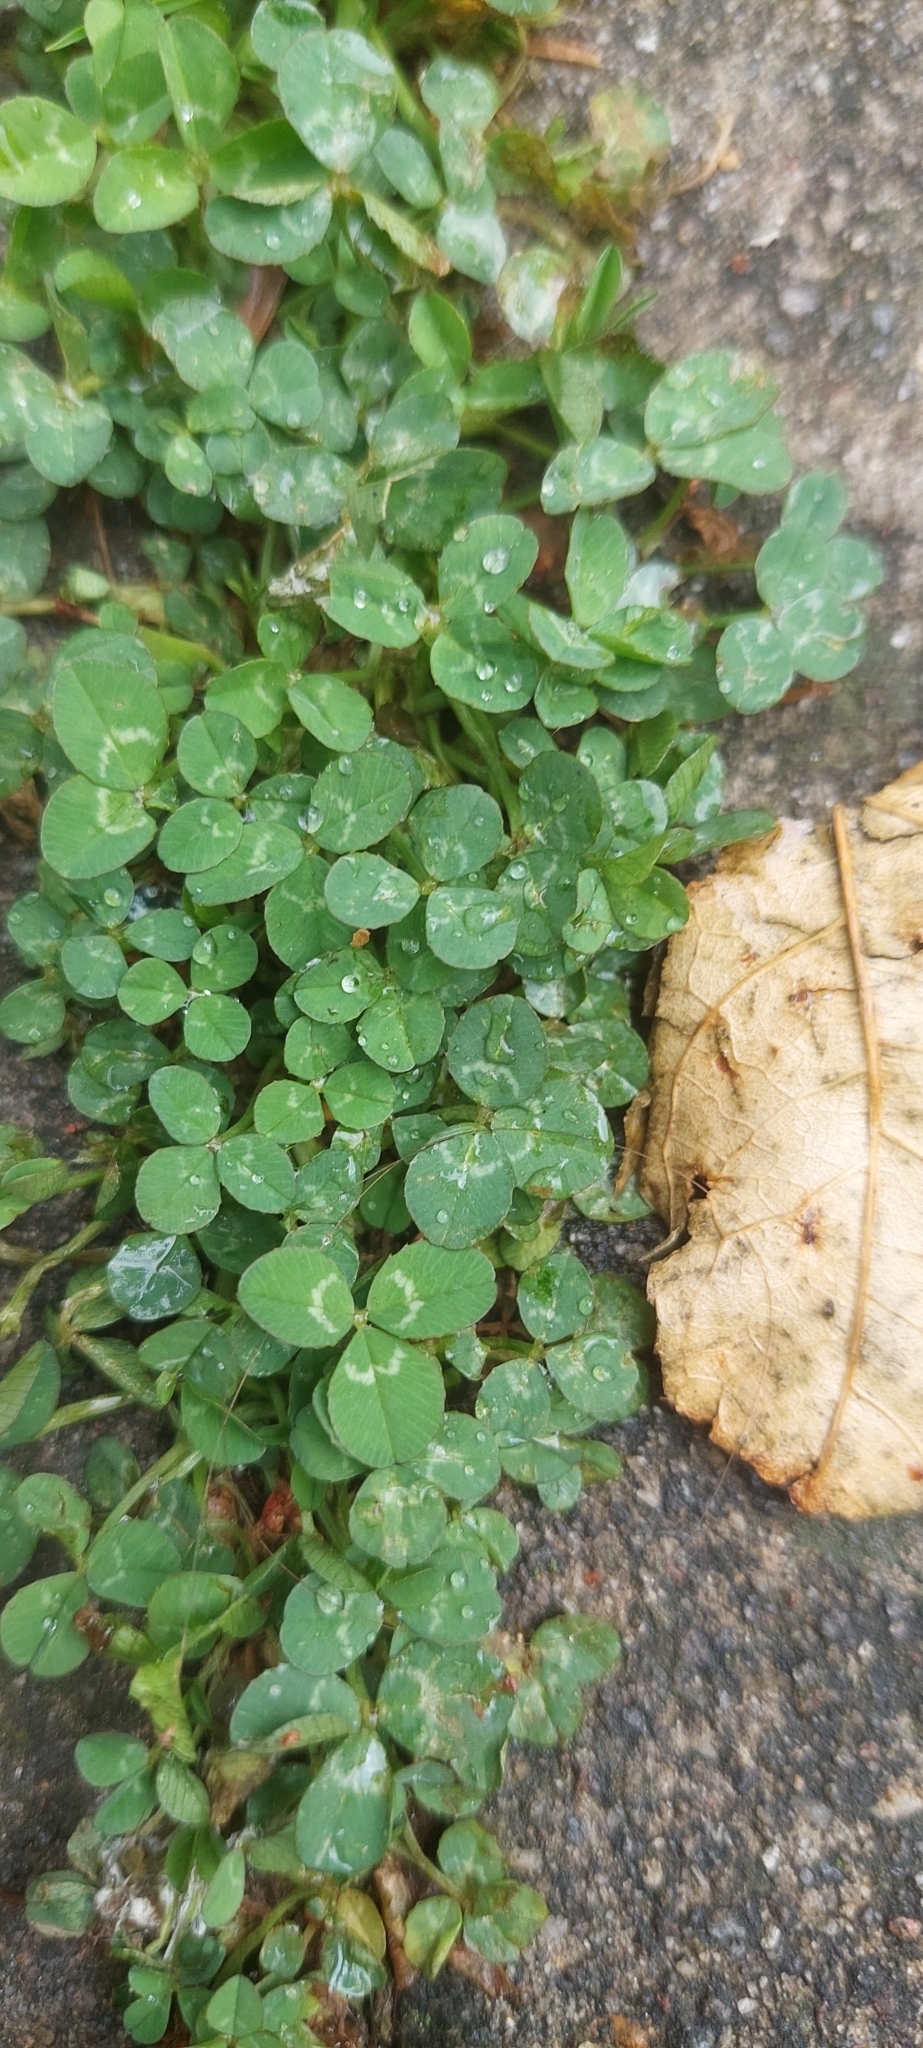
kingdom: Plantae
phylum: Tracheophyta
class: Magnoliopsida
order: Fabales
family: Fabaceae
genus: Trifolium
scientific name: Trifolium repens
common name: White clover
